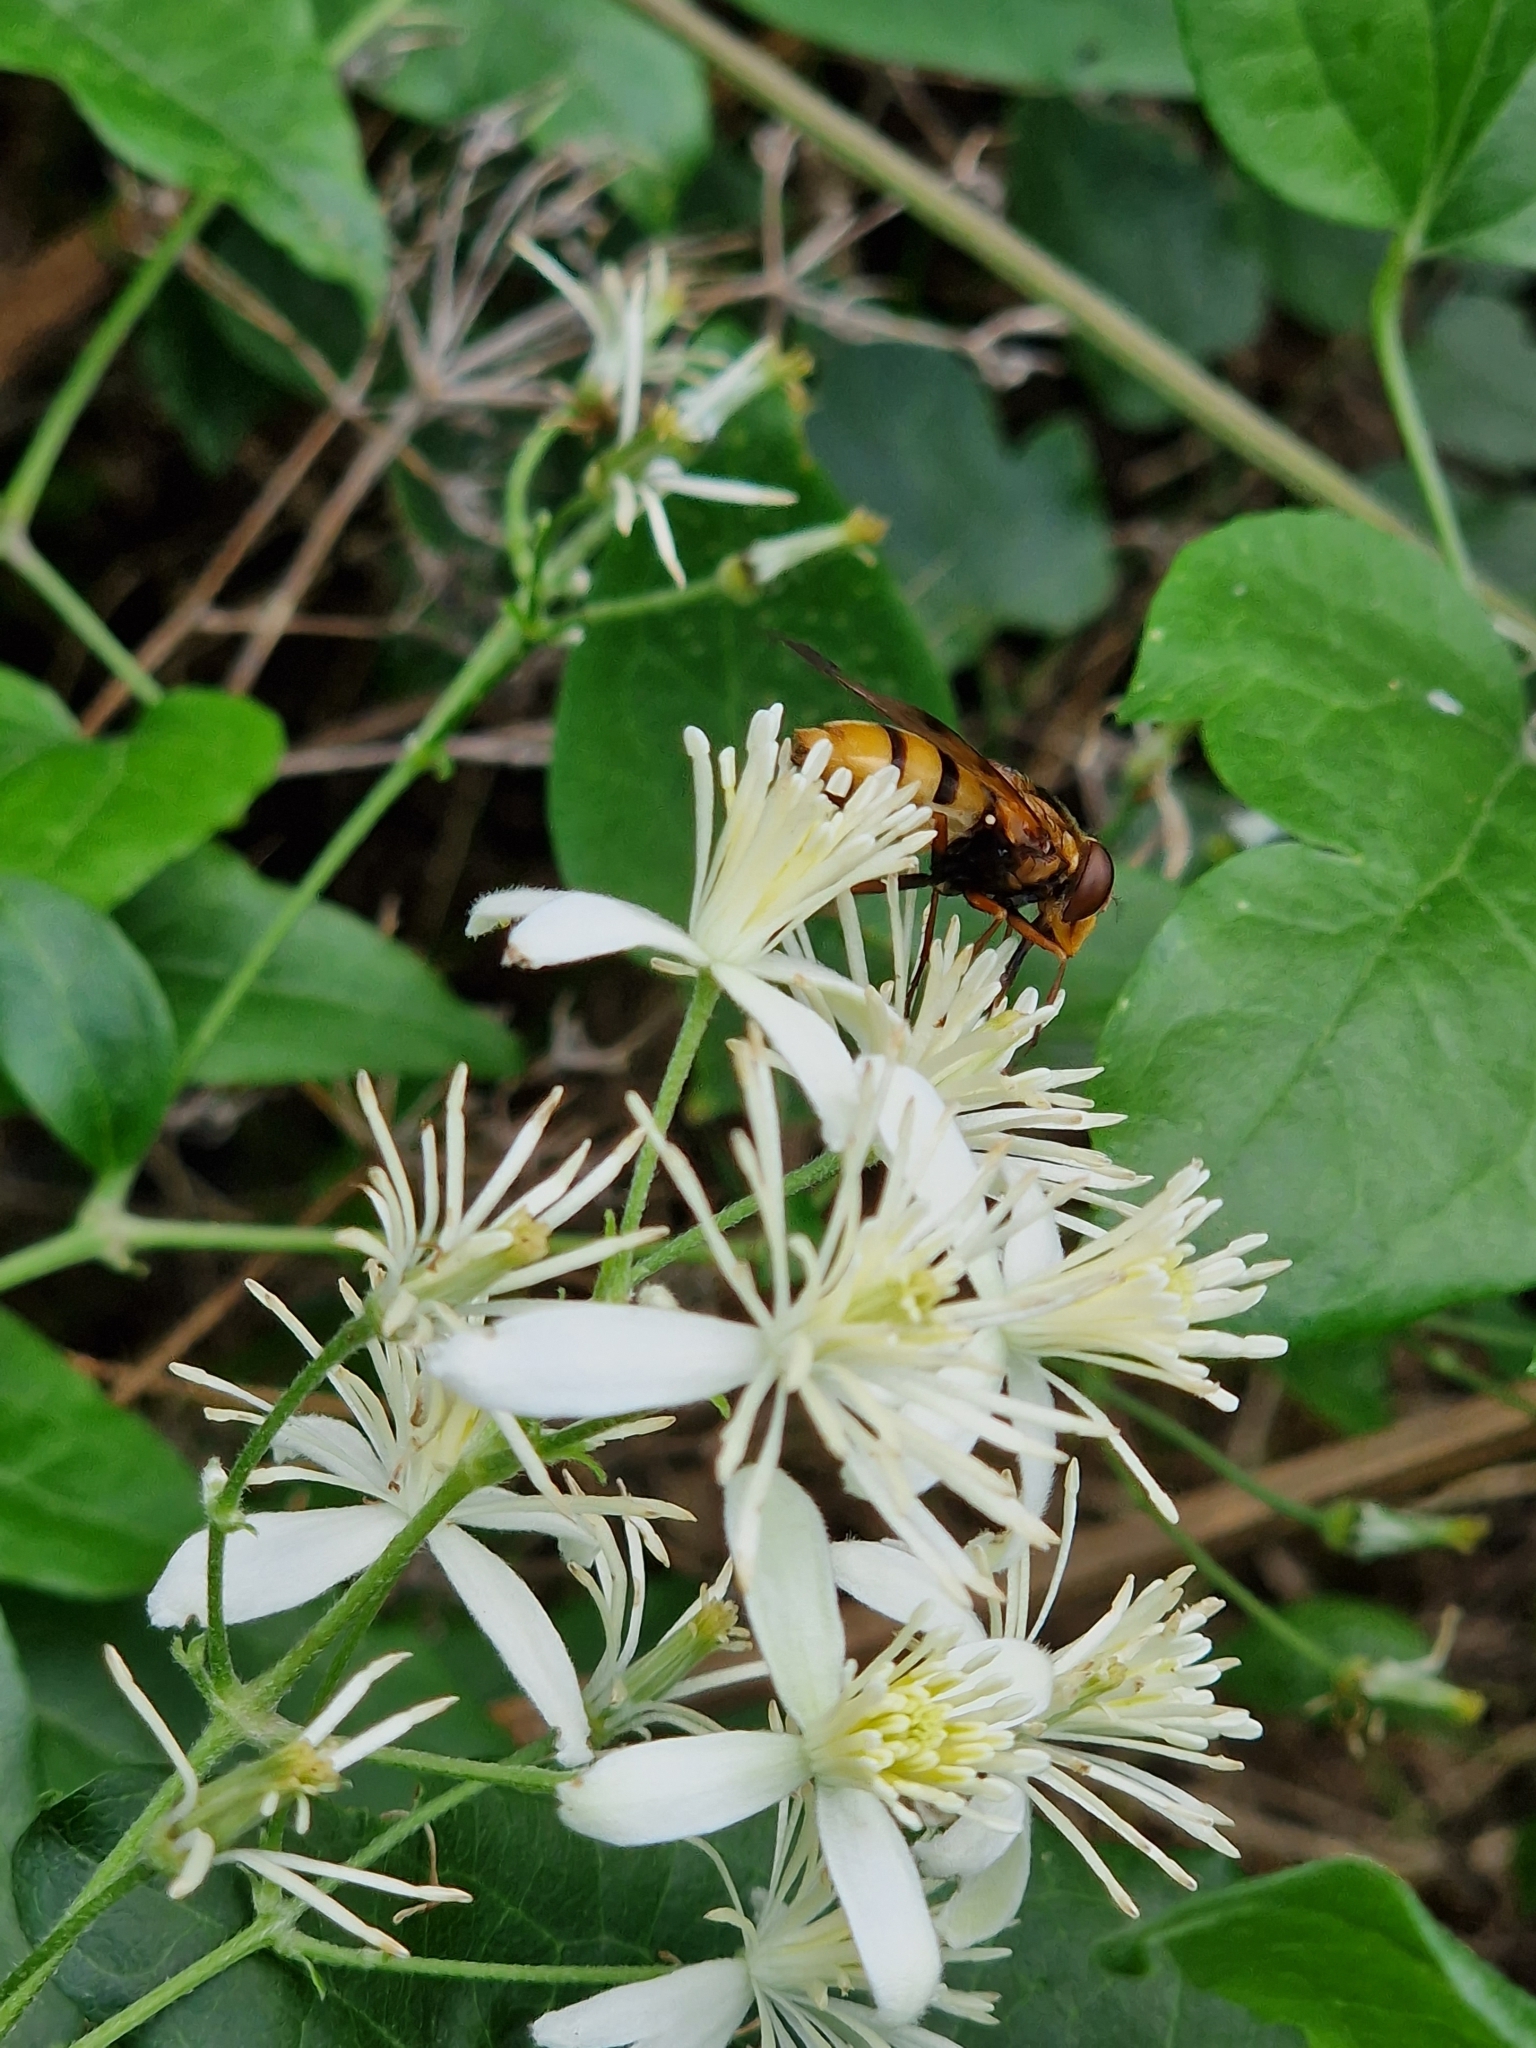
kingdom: Animalia
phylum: Arthropoda
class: Insecta
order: Diptera
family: Syrphidae
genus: Volucella
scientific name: Volucella inanis
